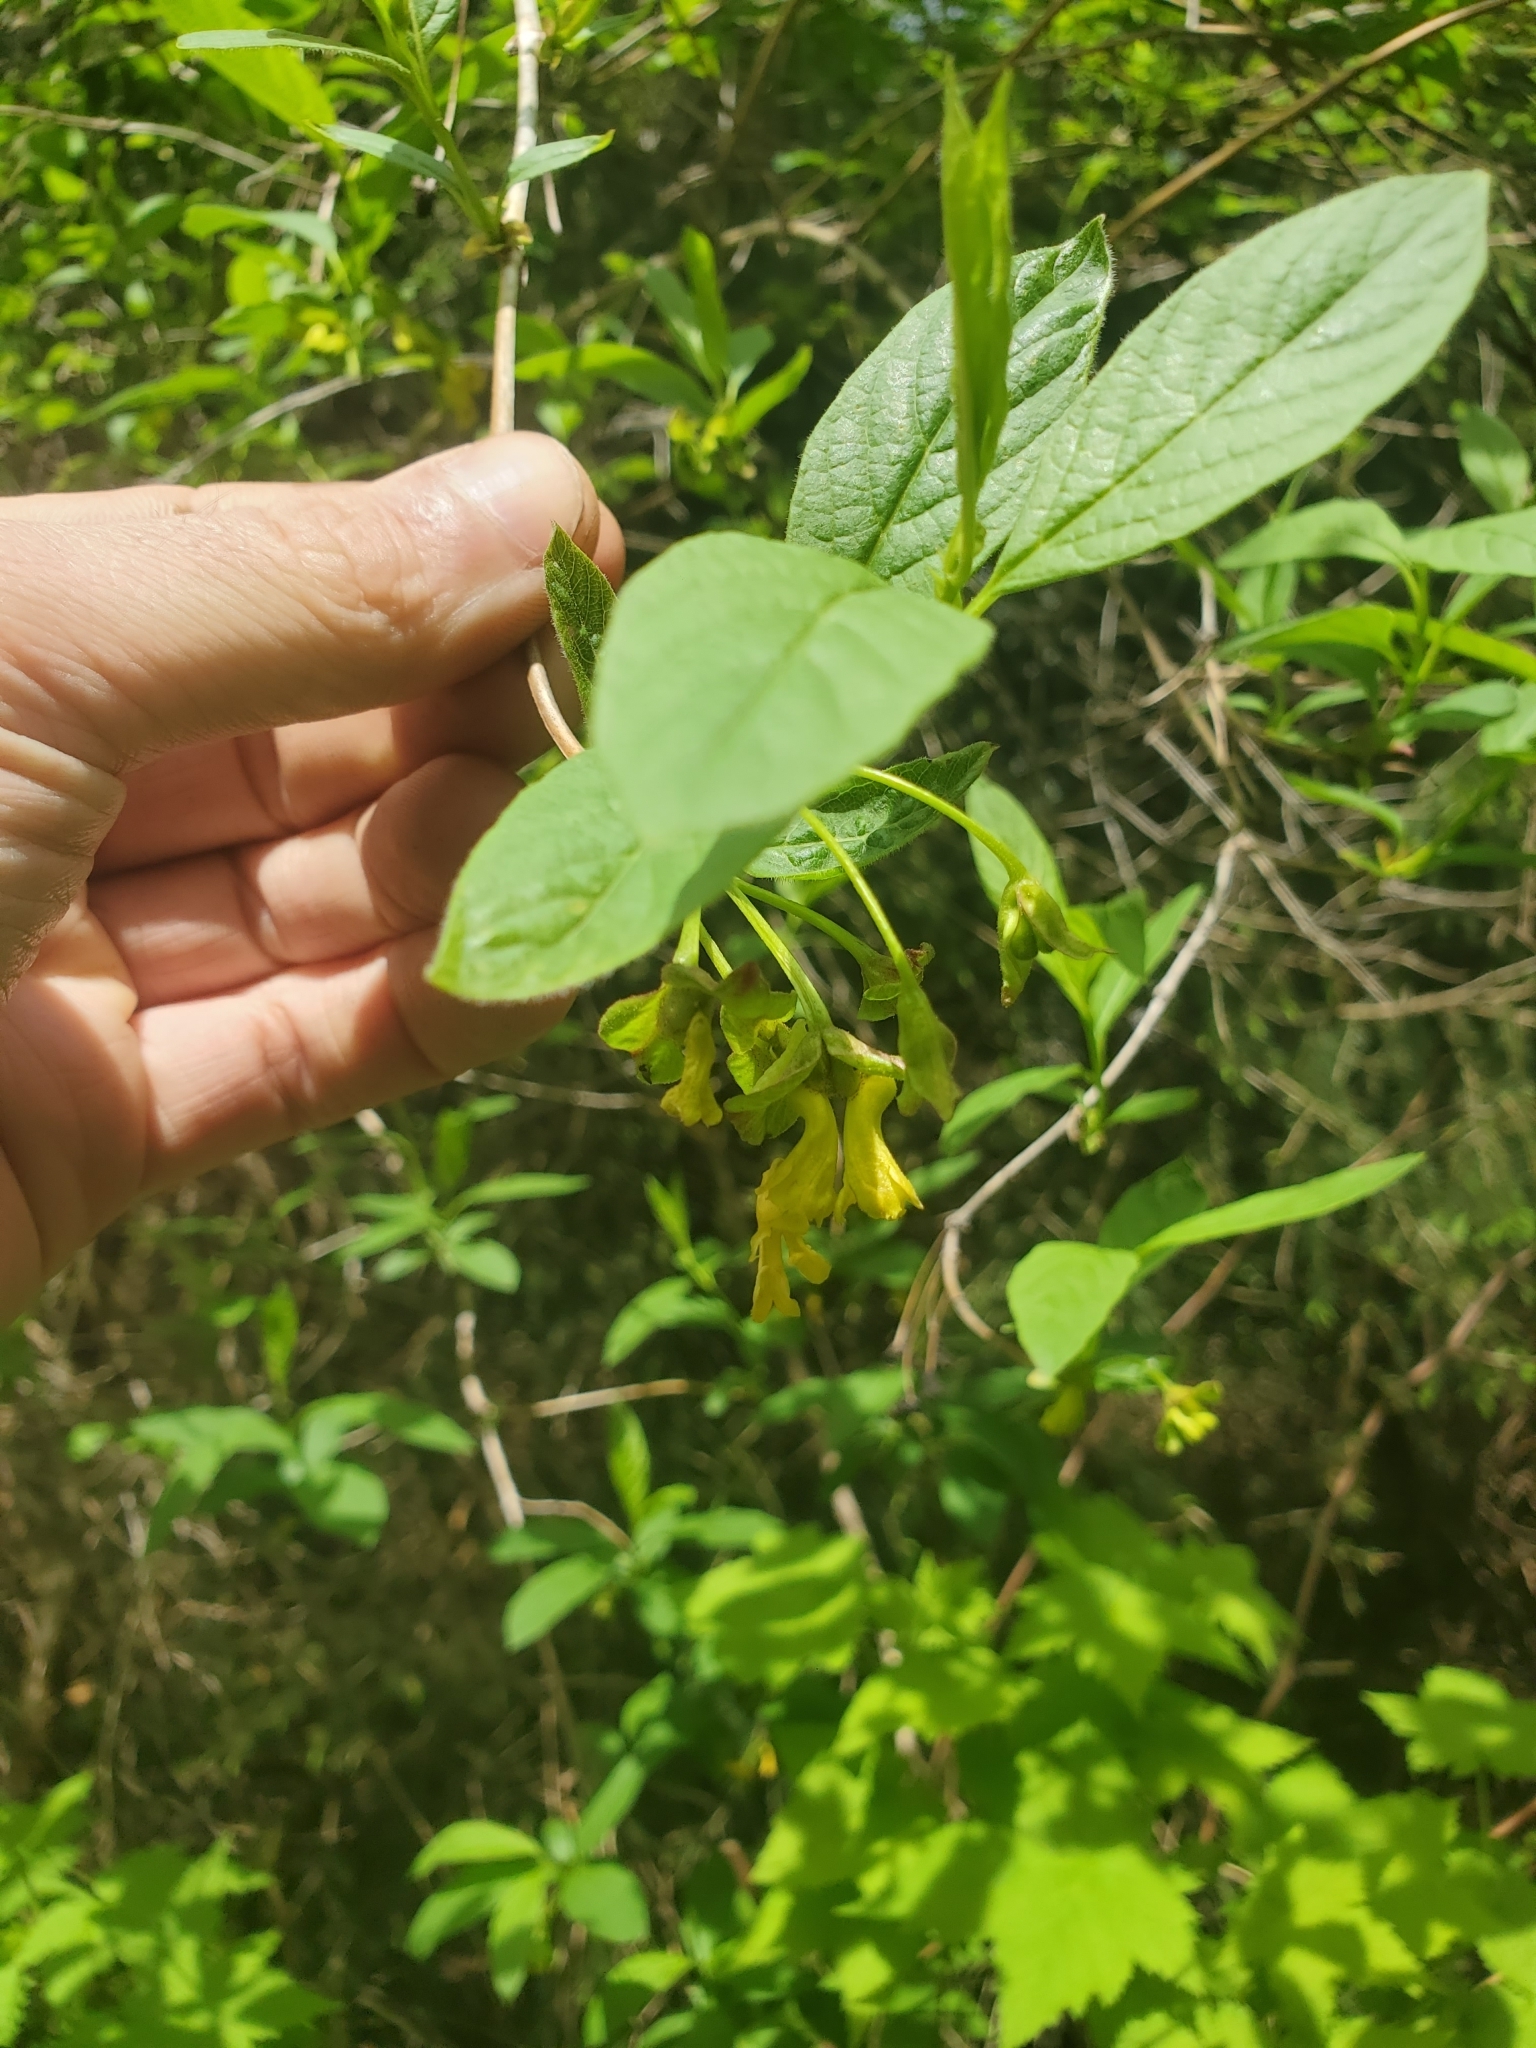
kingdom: Plantae
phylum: Tracheophyta
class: Magnoliopsida
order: Dipsacales
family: Caprifoliaceae
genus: Lonicera
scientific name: Lonicera involucrata
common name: Californian honeysuckle
